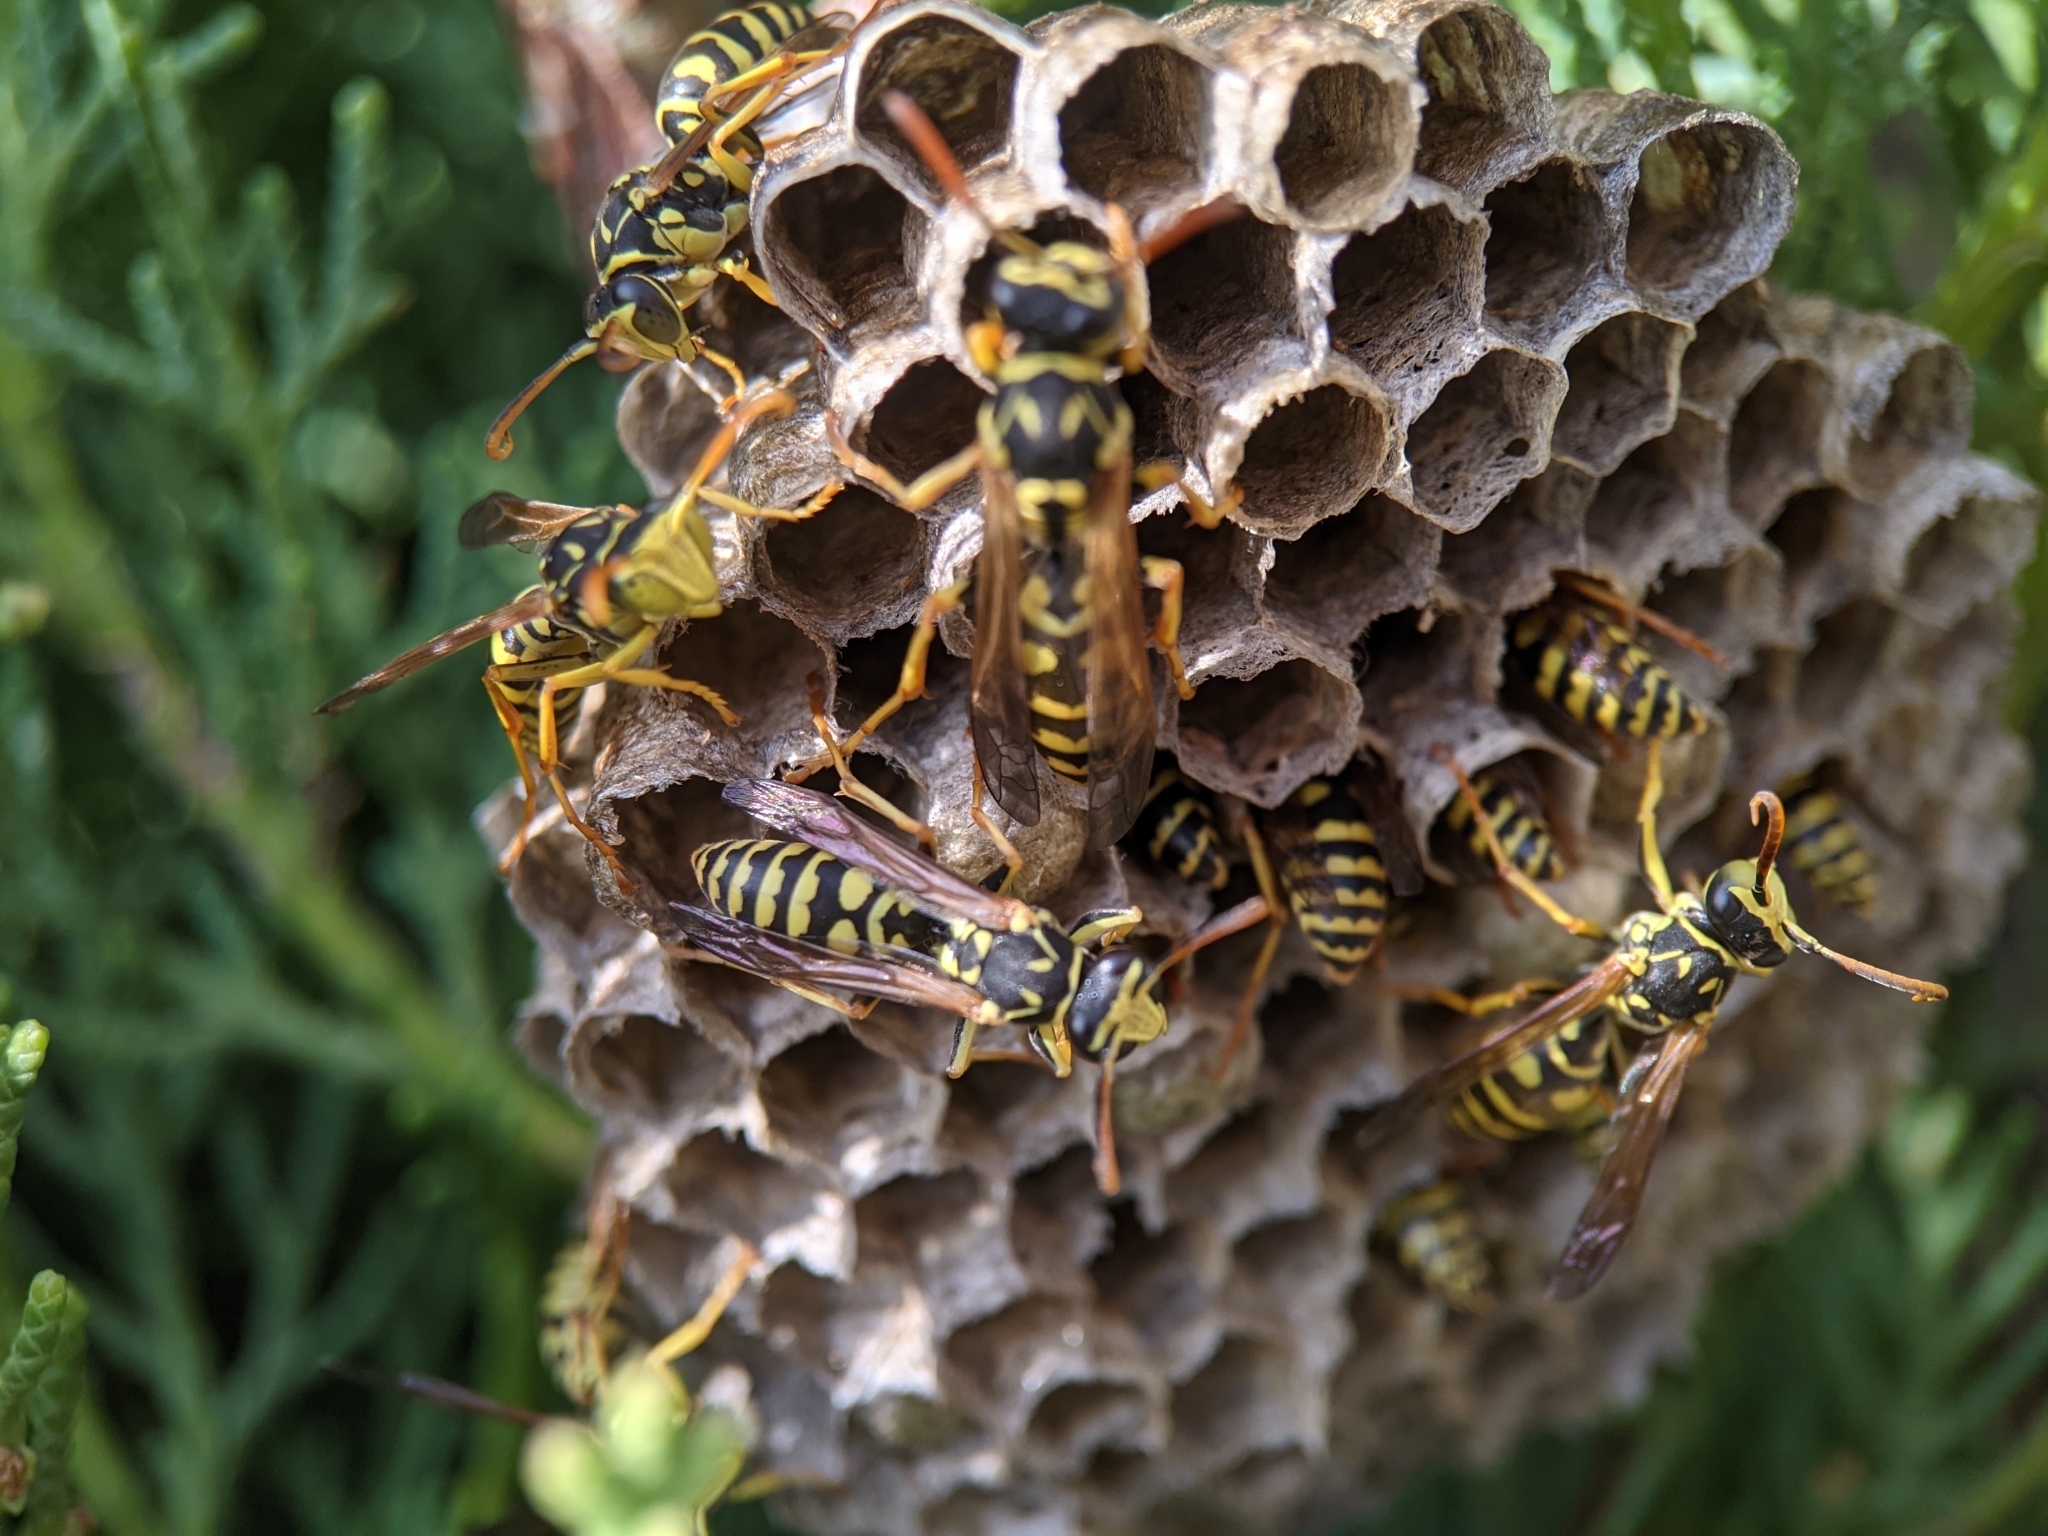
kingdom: Animalia
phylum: Arthropoda
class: Insecta
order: Hymenoptera
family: Eumenidae
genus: Polistes
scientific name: Polistes bischoffi
